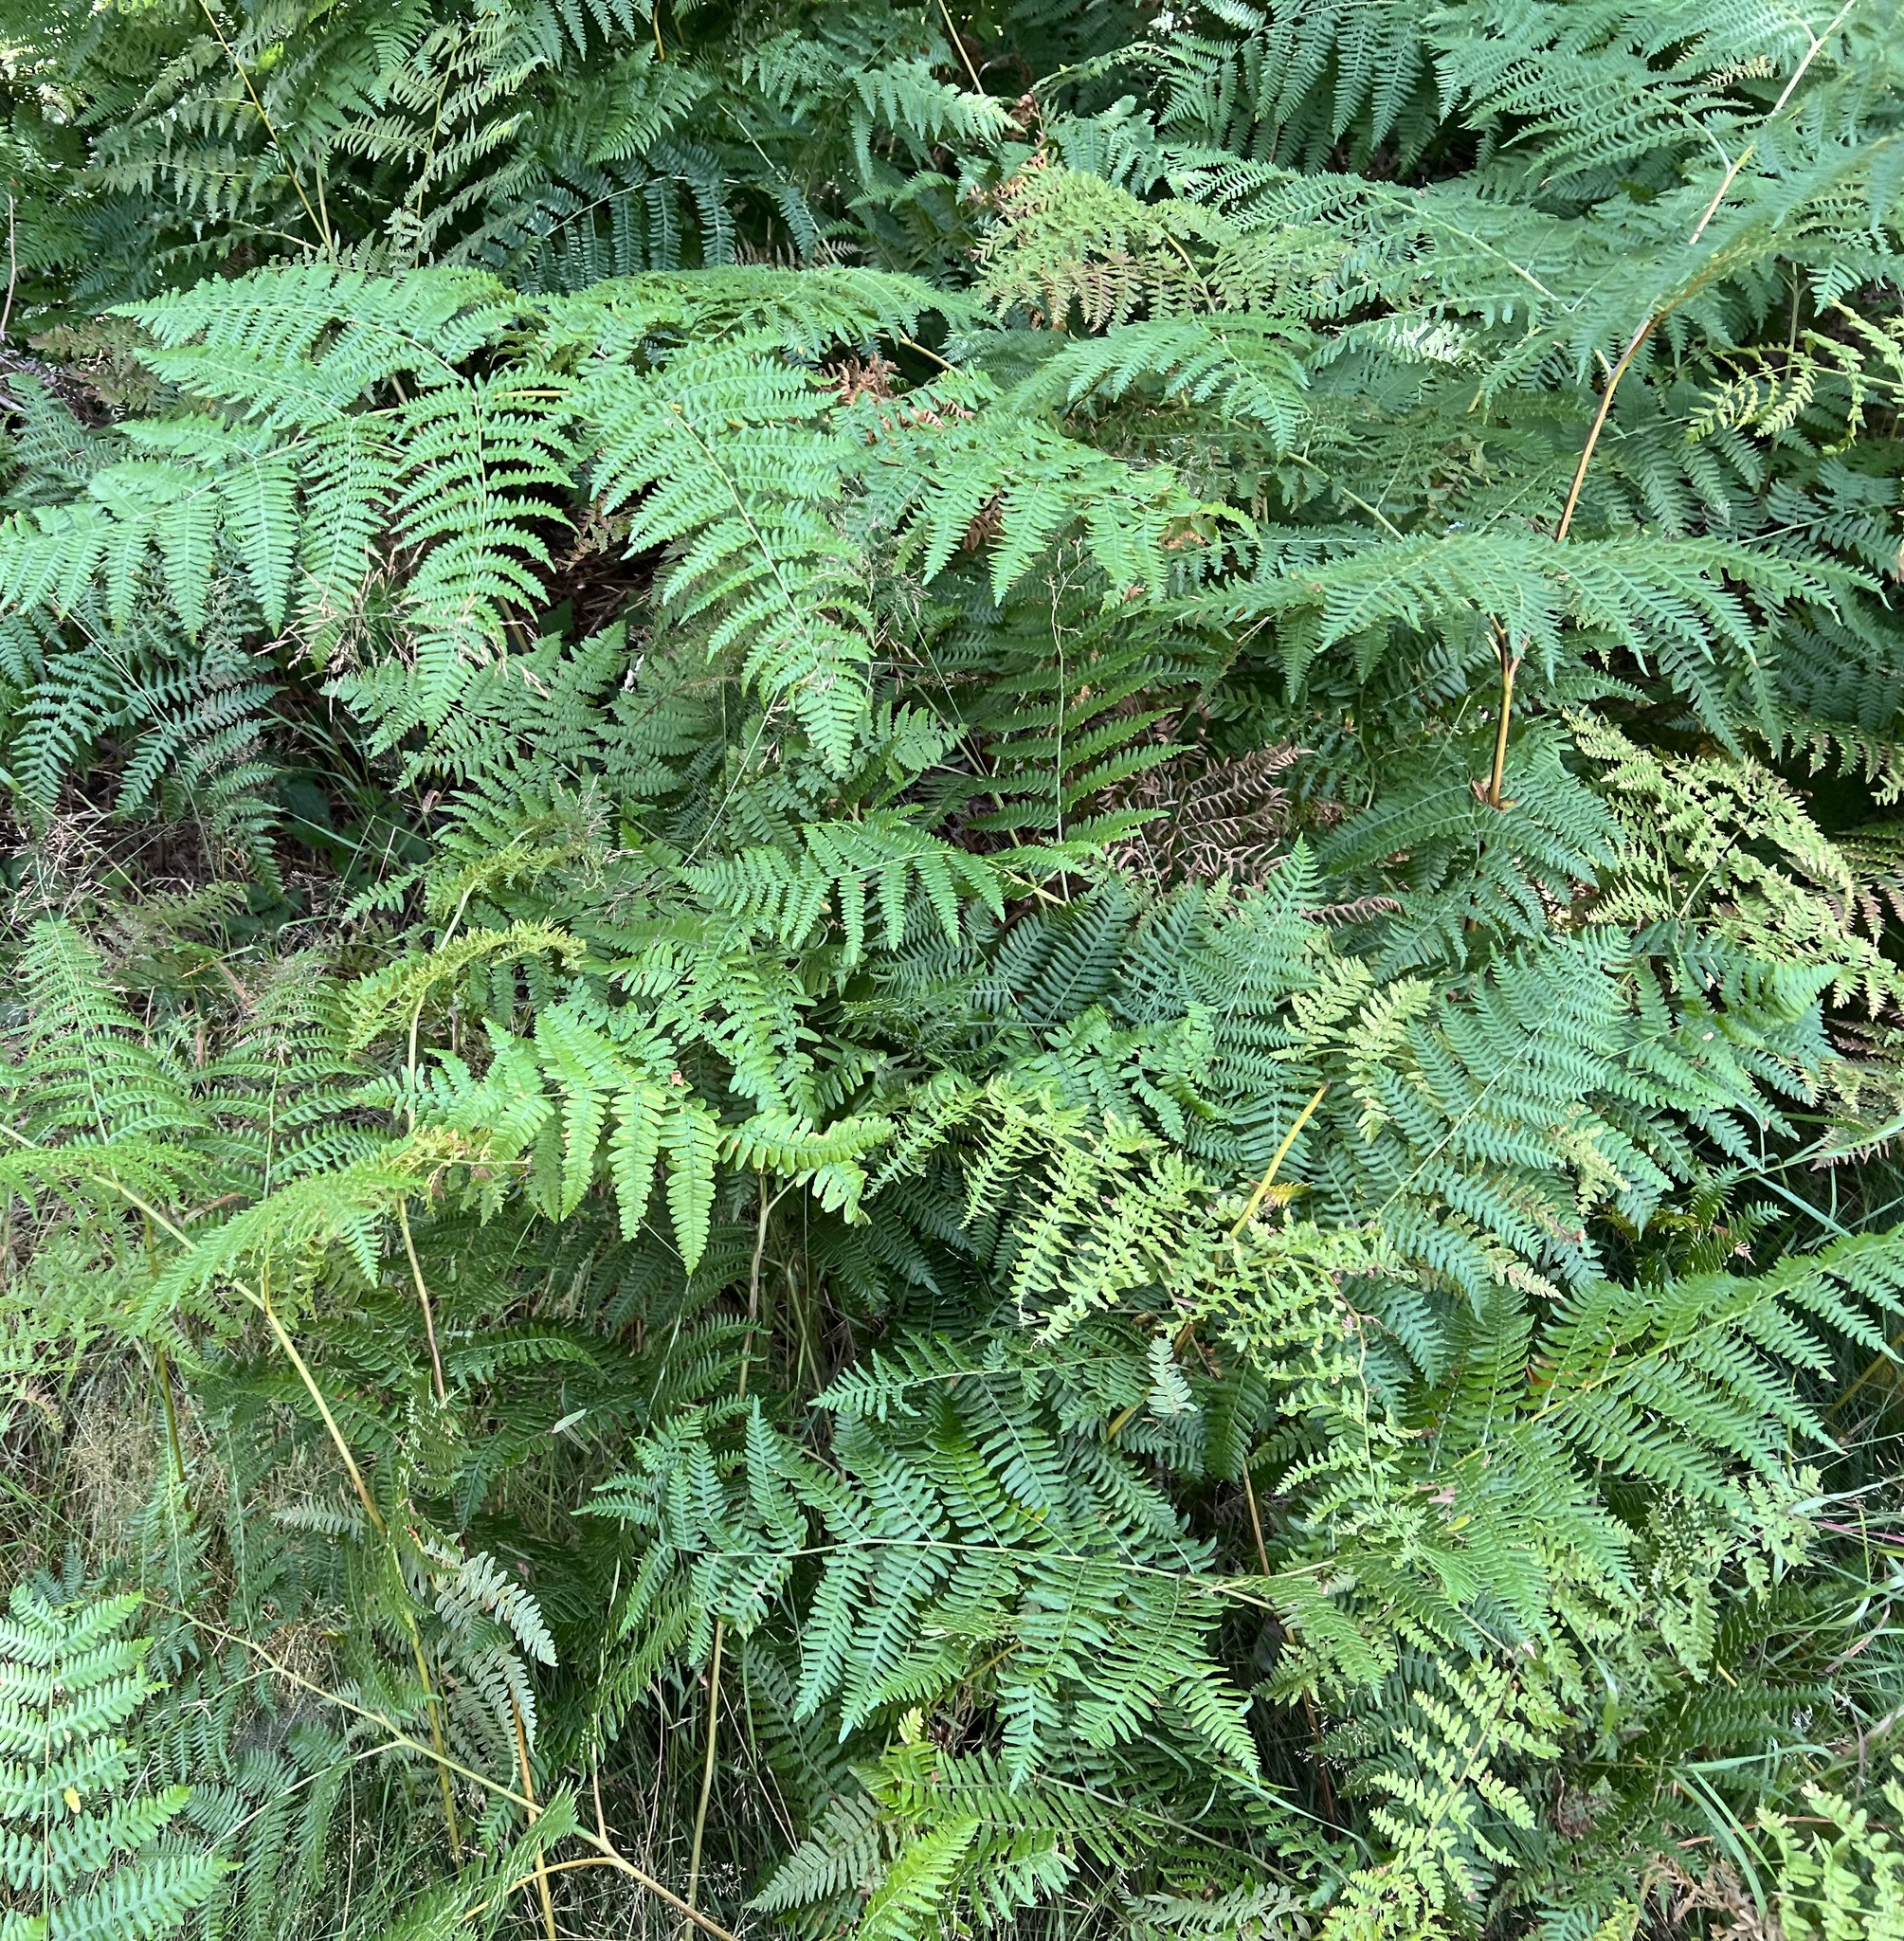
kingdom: Plantae
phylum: Tracheophyta
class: Polypodiopsida
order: Polypodiales
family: Dennstaedtiaceae
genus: Pteridium
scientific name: Pteridium aquilinum
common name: Bracken
